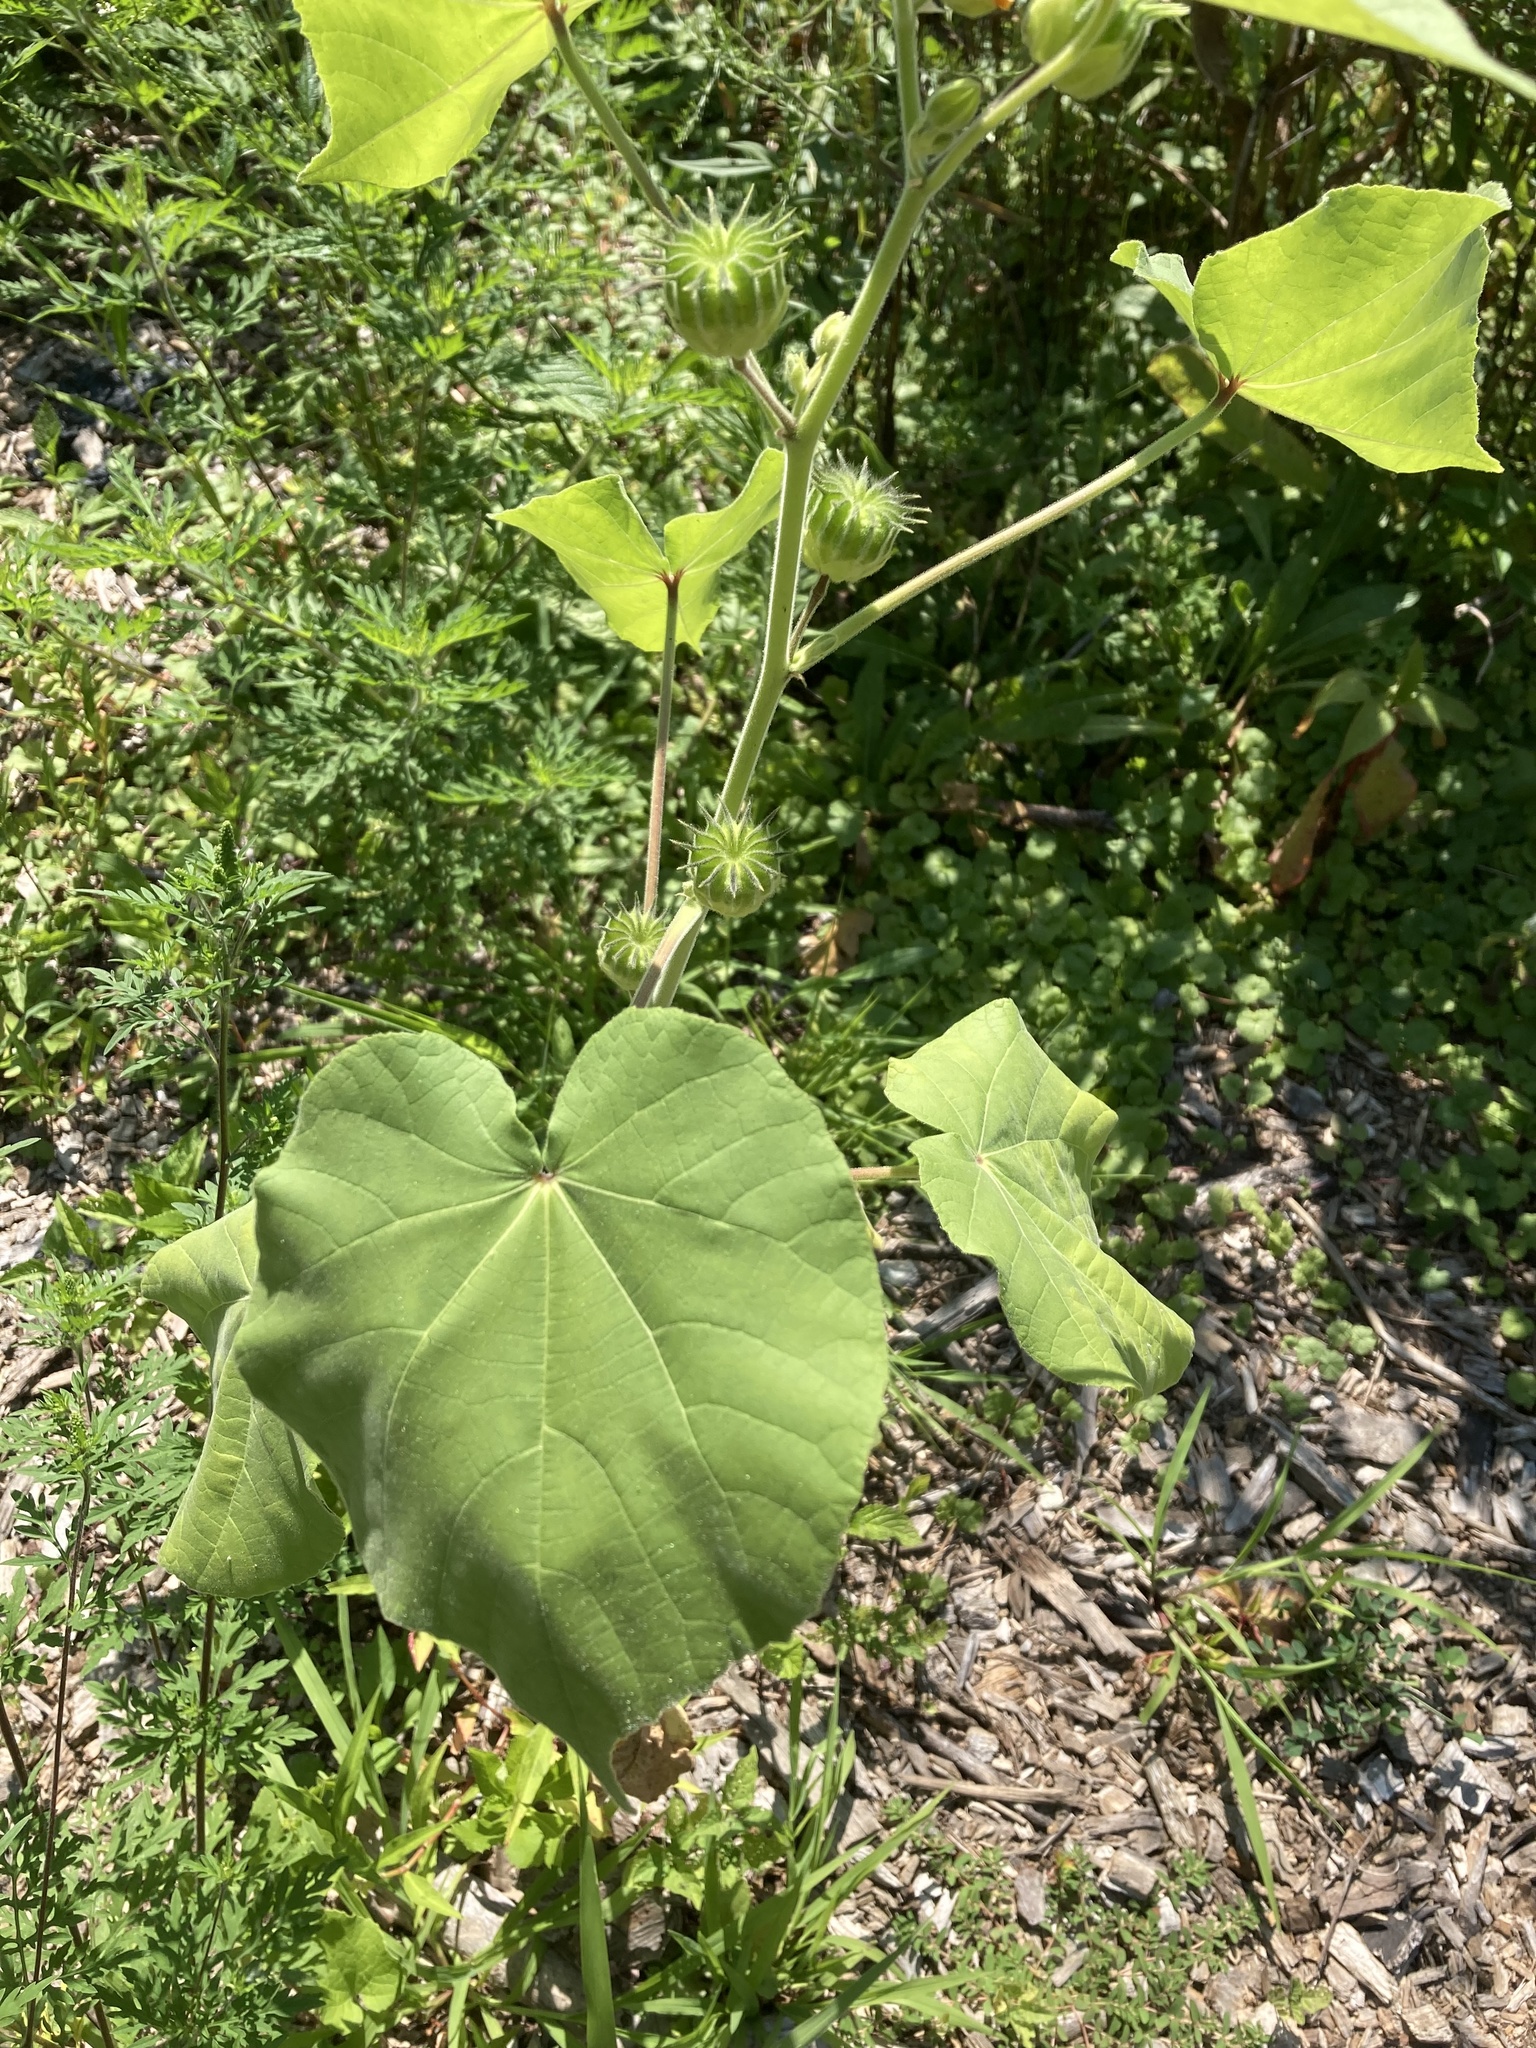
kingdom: Plantae
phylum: Tracheophyta
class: Magnoliopsida
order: Malvales
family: Malvaceae
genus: Abutilon
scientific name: Abutilon theophrasti
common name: Velvetleaf
